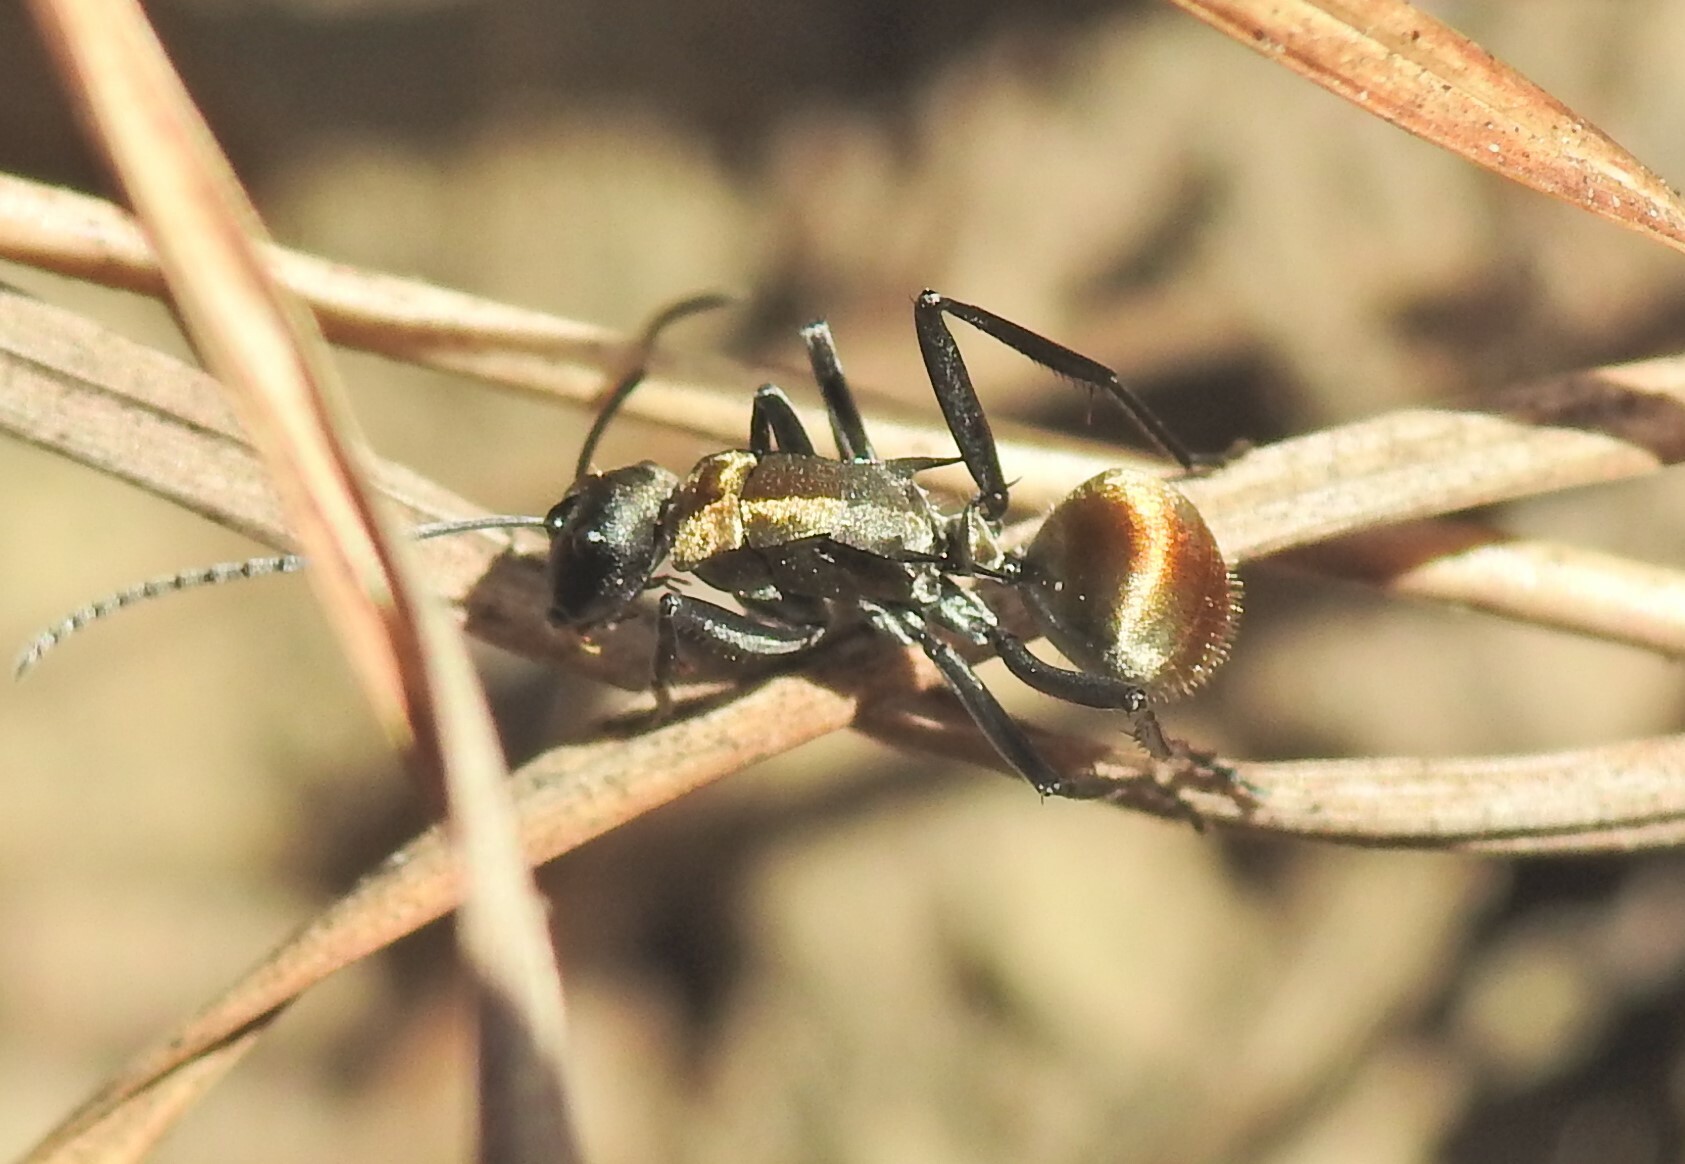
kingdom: Animalia
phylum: Arthropoda
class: Insecta
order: Hymenoptera
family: Formicidae
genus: Polyrhachis
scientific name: Polyrhachis ammon
